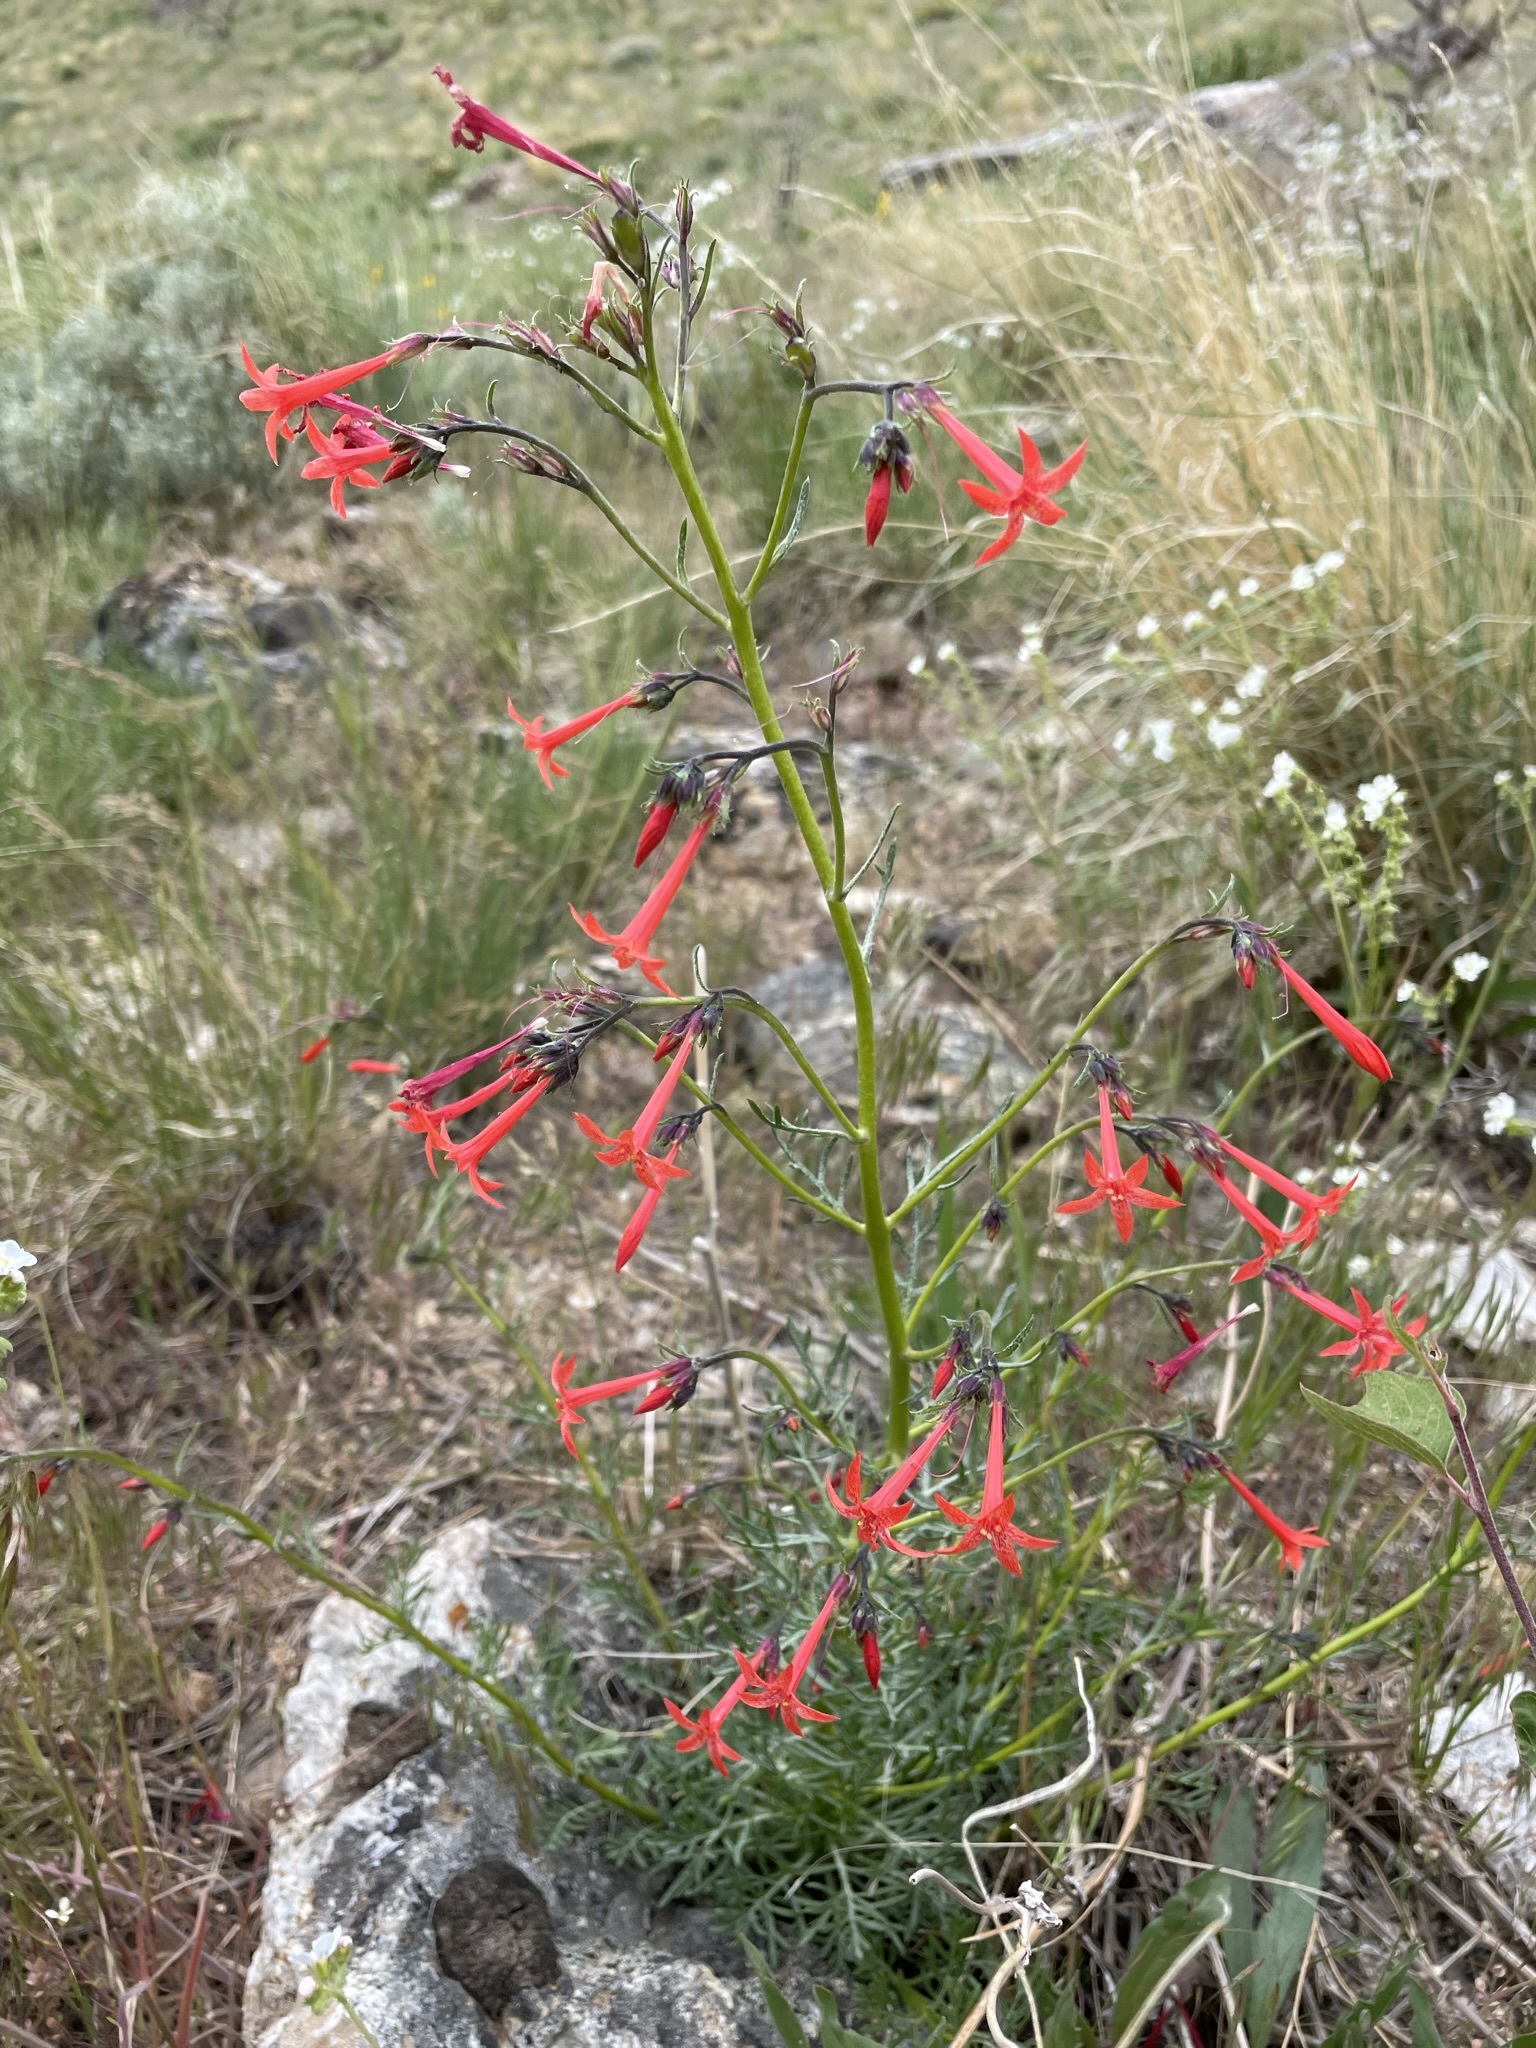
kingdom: Plantae
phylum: Tracheophyta
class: Magnoliopsida
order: Ericales
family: Polemoniaceae
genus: Ipomopsis
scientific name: Ipomopsis aggregata
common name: Scarlet gilia
